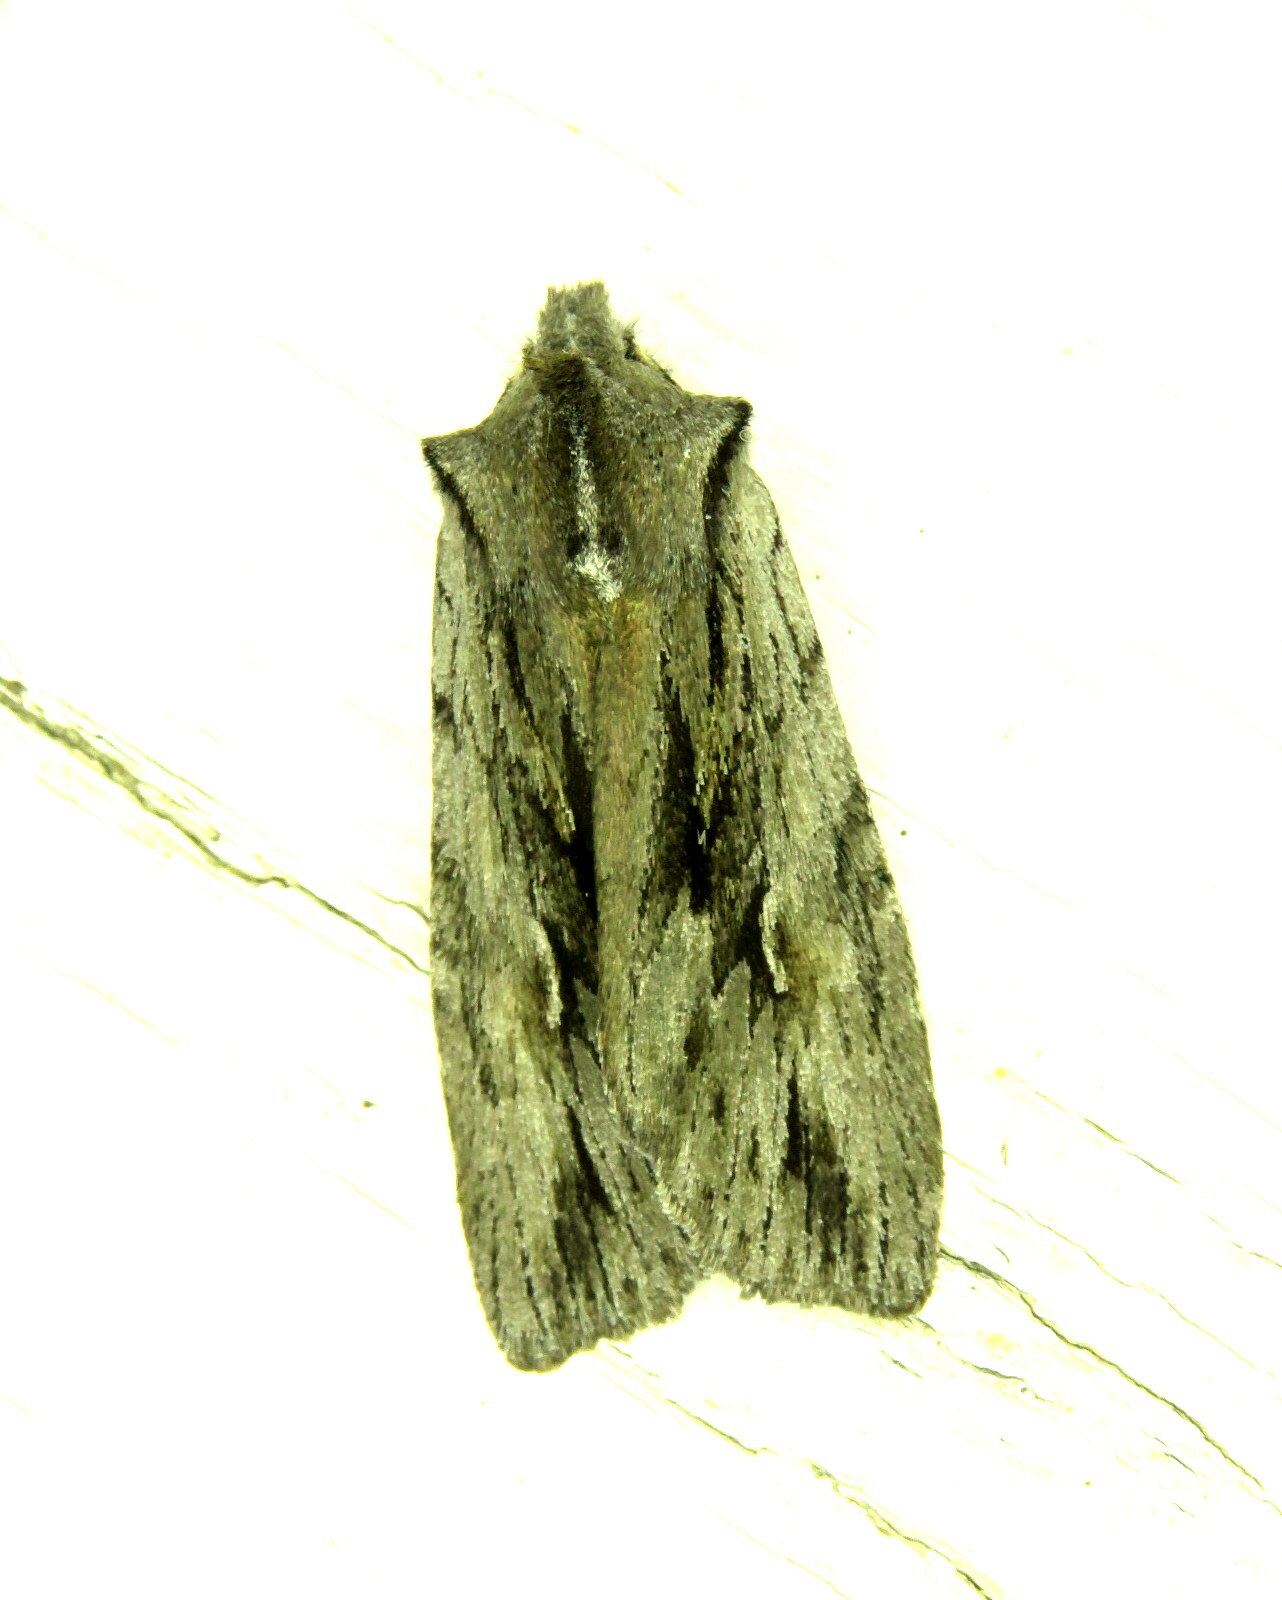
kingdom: Animalia
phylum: Arthropoda
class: Insecta
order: Lepidoptera
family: Noctuidae
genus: Lithophane
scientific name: Lithophane thujae
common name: Cedar pinion moth
